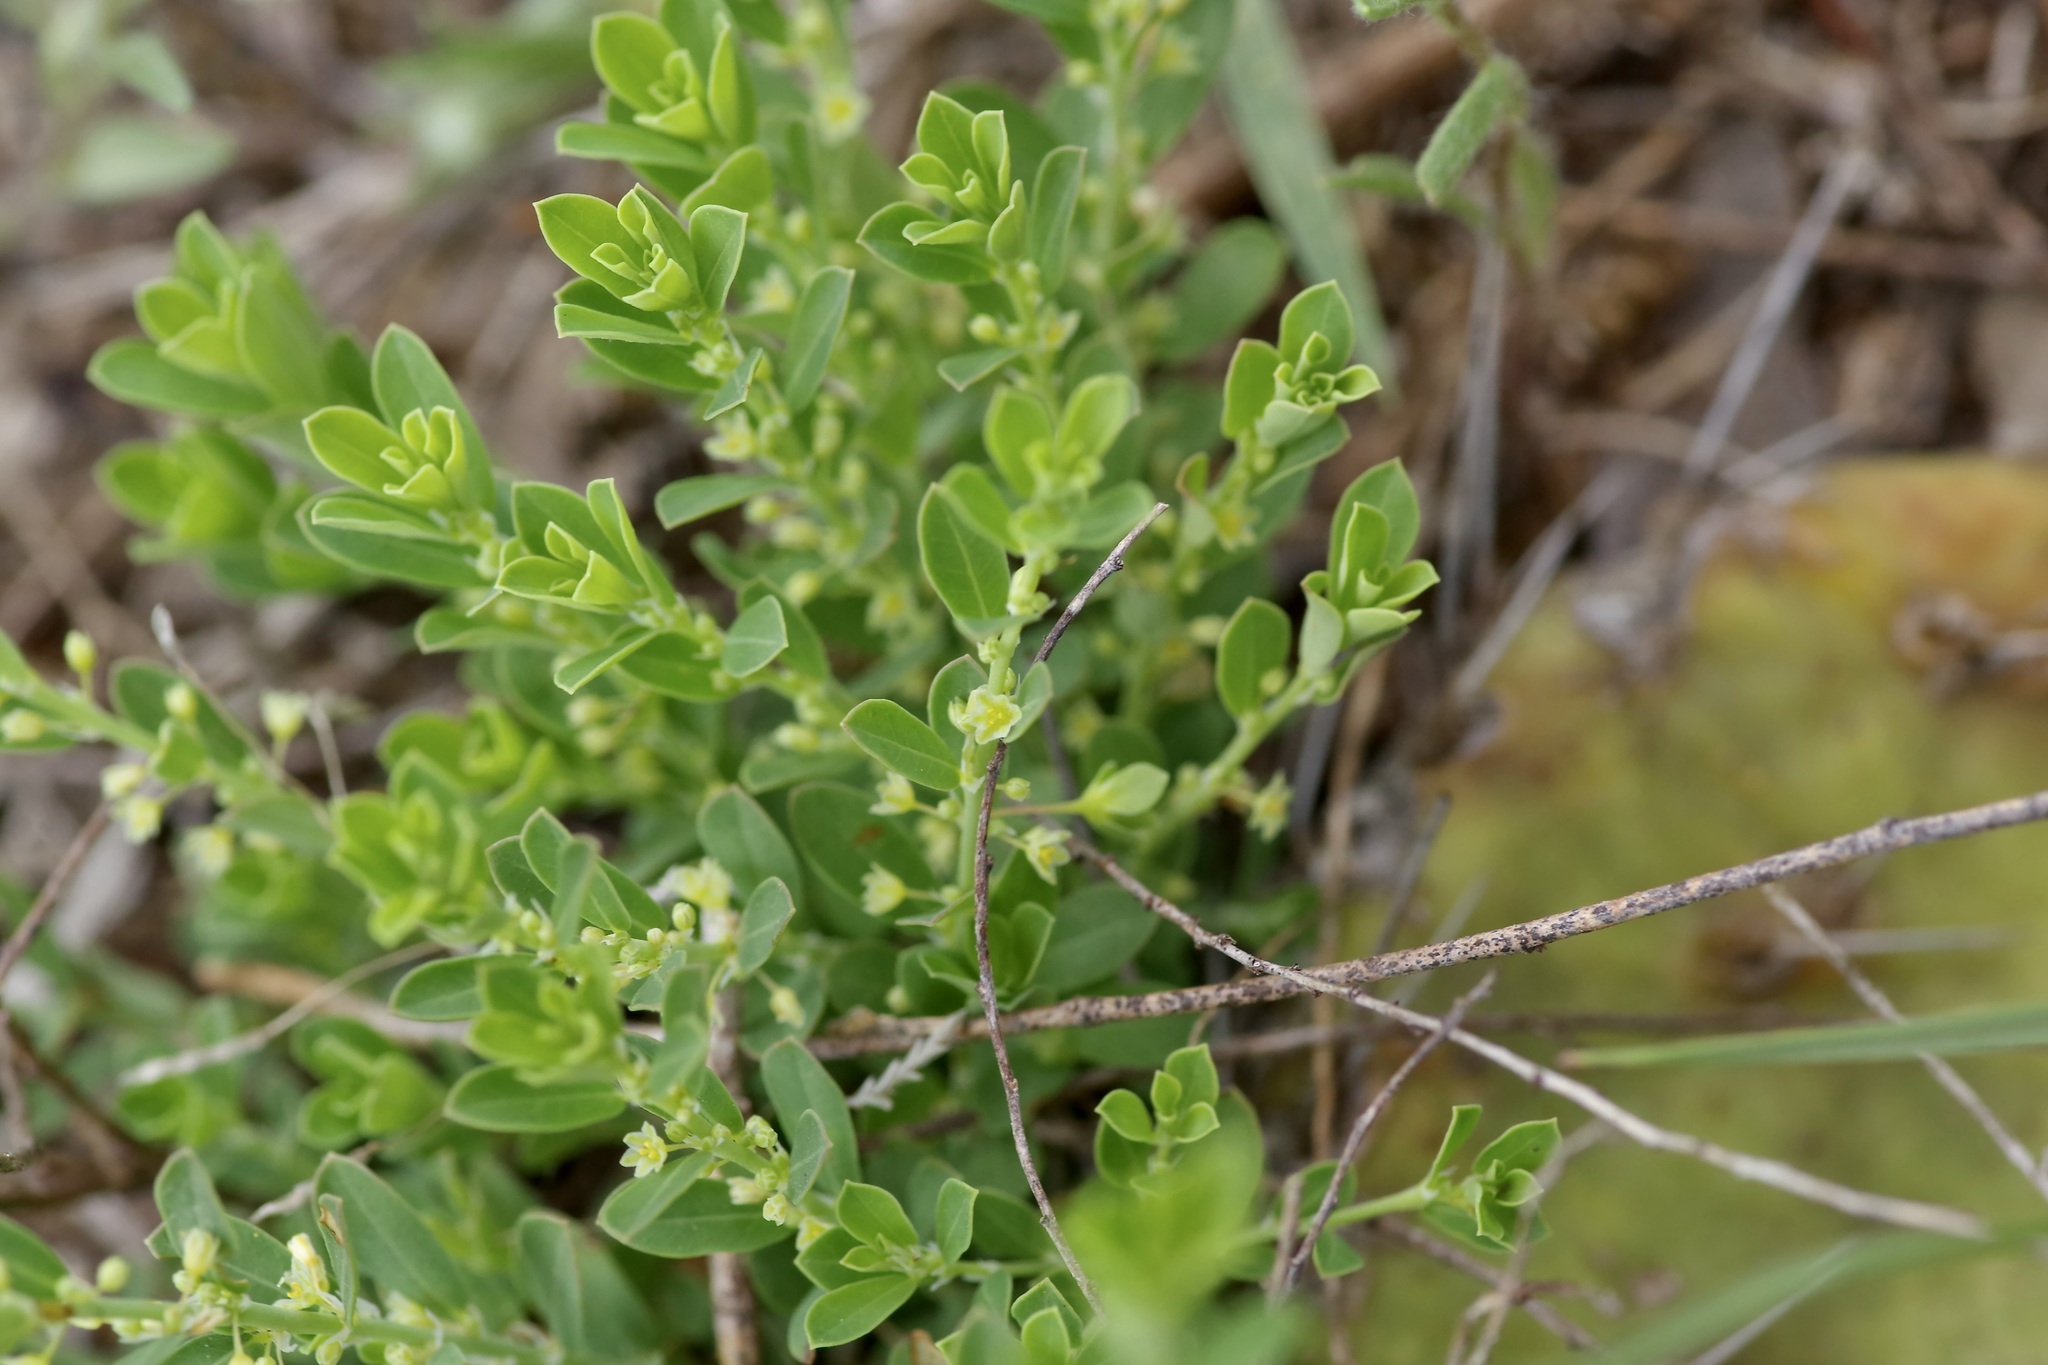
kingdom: Plantae
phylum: Tracheophyta
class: Magnoliopsida
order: Malpighiales
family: Phyllanthaceae
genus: Phyllanthus
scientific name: Phyllanthus polygonoides
